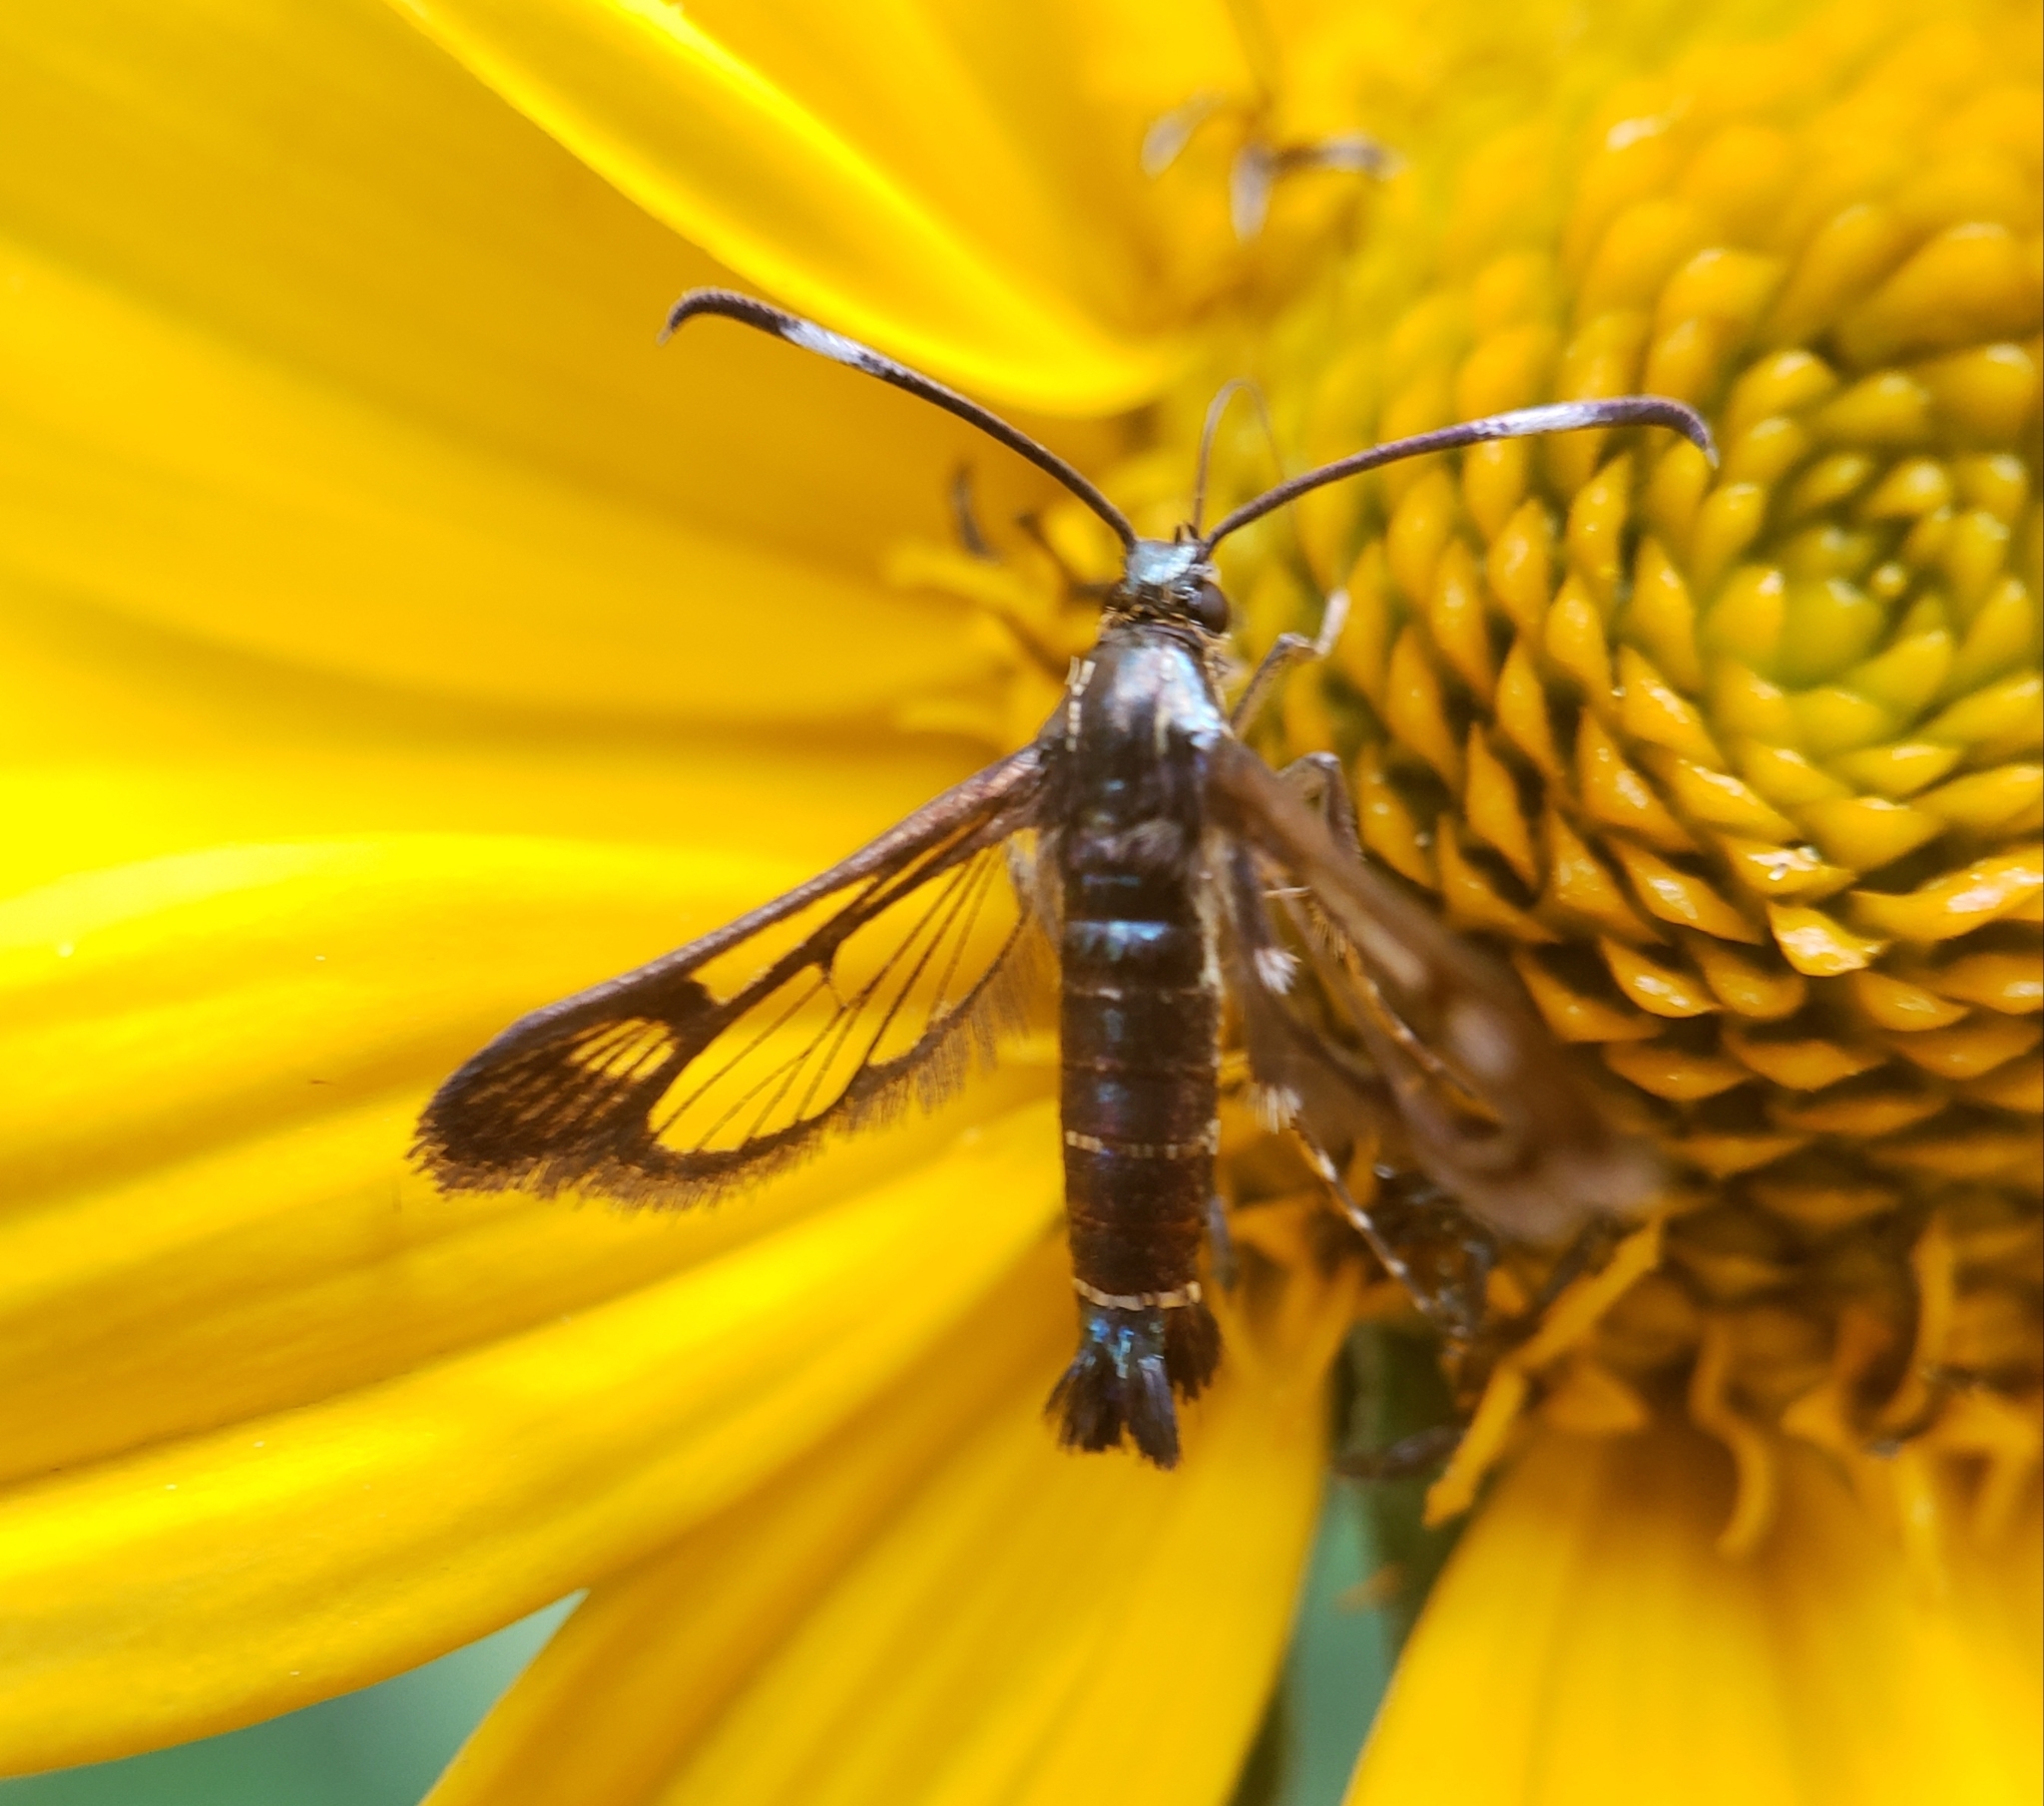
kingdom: Animalia
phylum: Arthropoda
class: Insecta
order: Lepidoptera
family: Sesiidae
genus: Carmenta
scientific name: Carmenta ithacae
